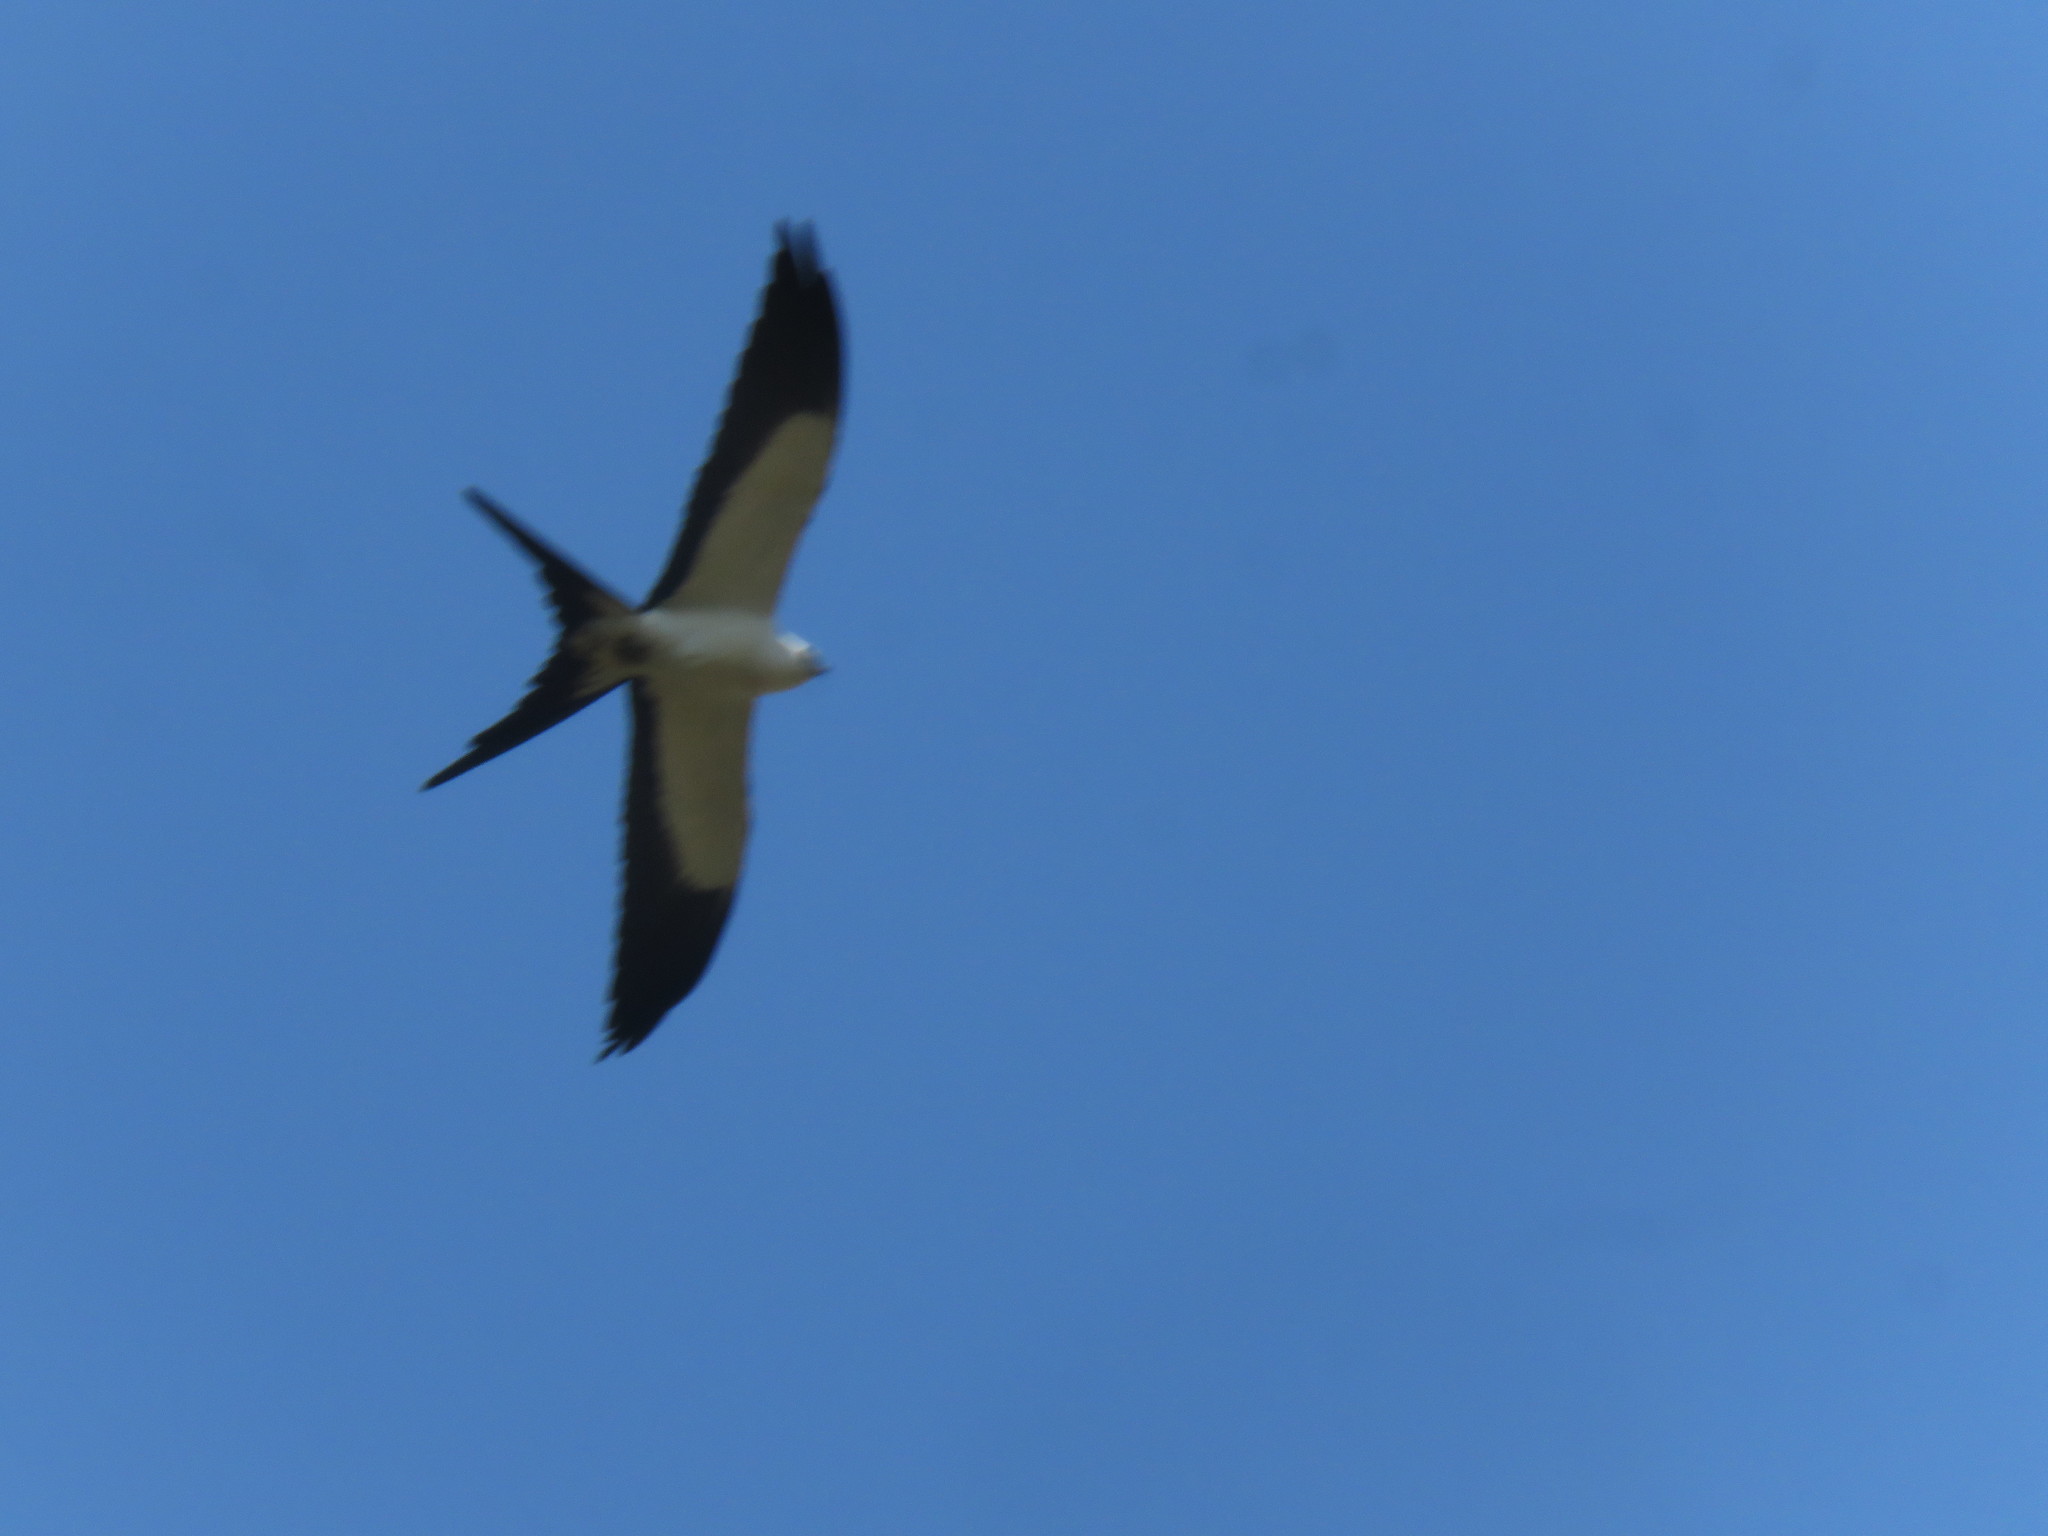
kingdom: Animalia
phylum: Chordata
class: Aves
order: Accipitriformes
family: Accipitridae
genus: Elanoides
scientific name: Elanoides forficatus
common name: Swallow-tailed kite
